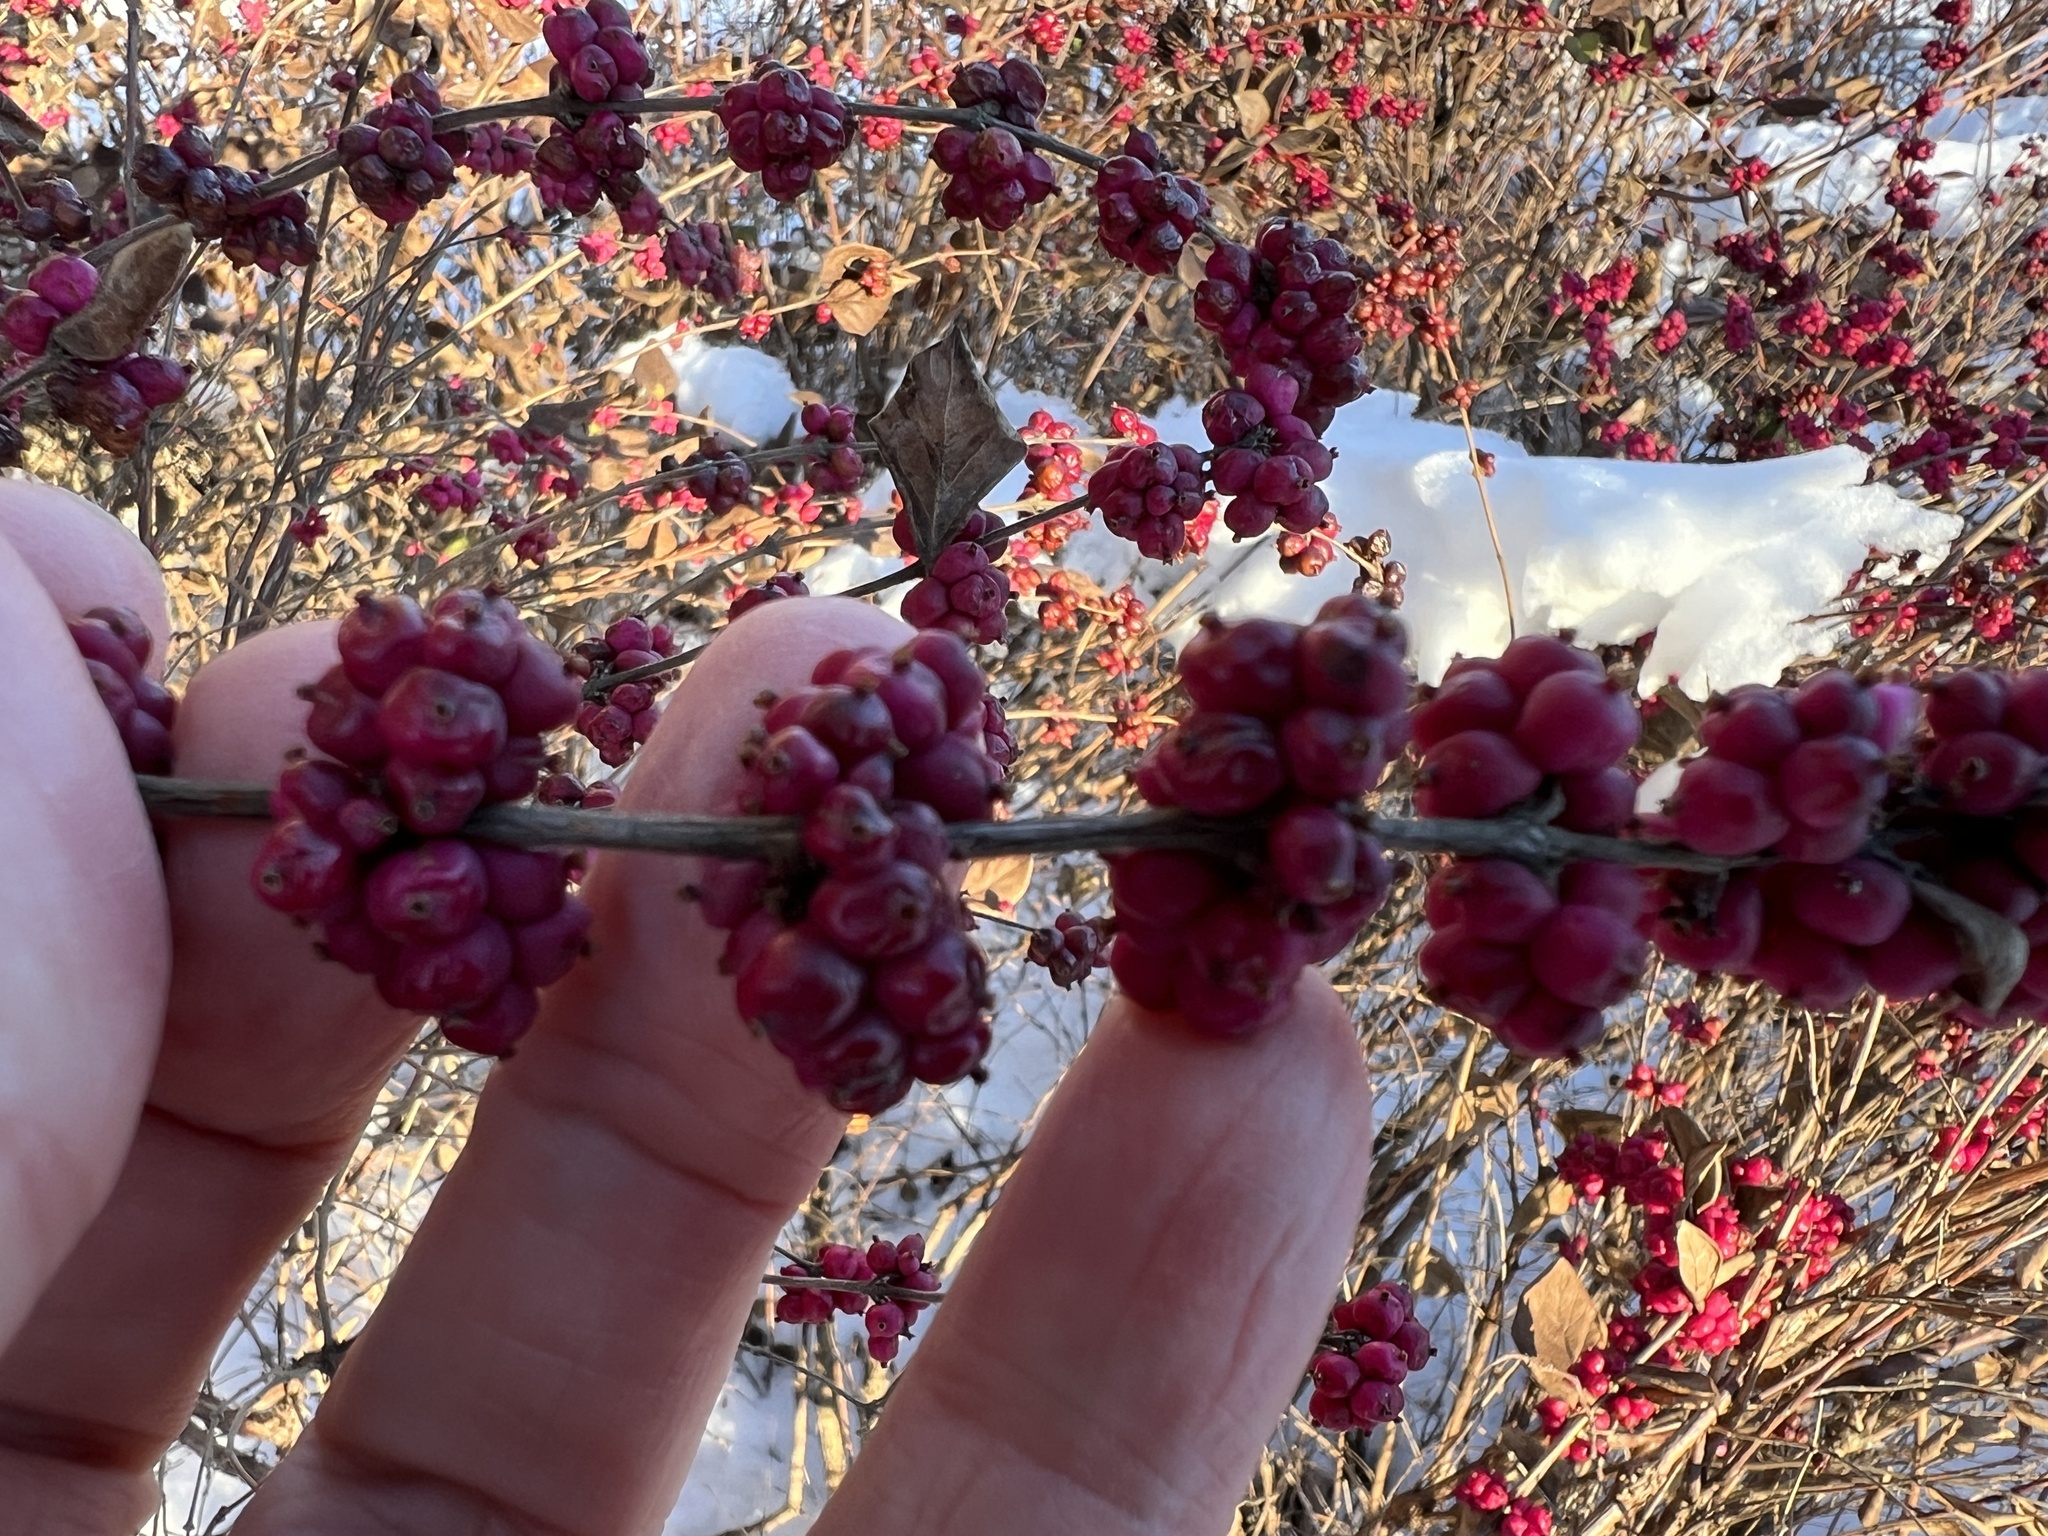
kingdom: Plantae
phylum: Tracheophyta
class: Magnoliopsida
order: Dipsacales
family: Caprifoliaceae
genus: Symphoricarpos
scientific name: Symphoricarpos orbiculatus
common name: Coralberry
